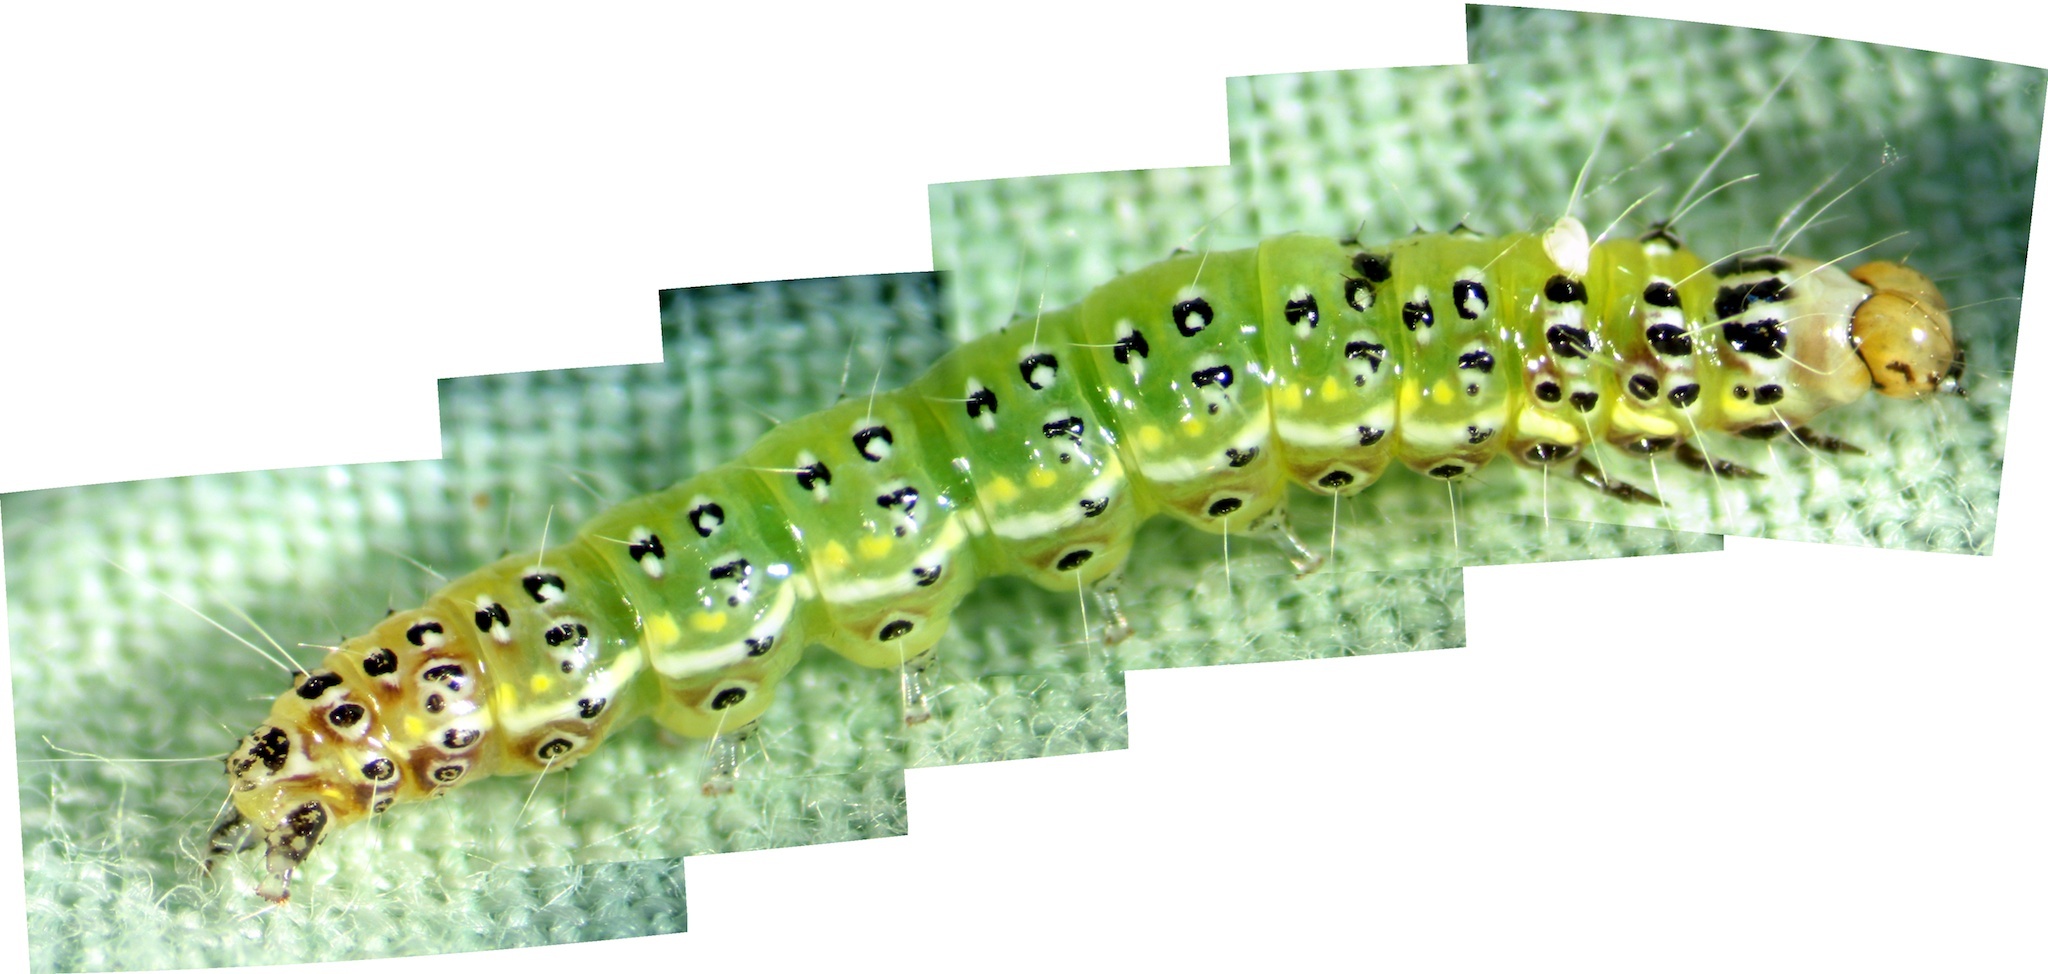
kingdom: Animalia
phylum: Arthropoda
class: Insecta
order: Lepidoptera
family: Crambidae
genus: Uresiphita
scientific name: Uresiphita
